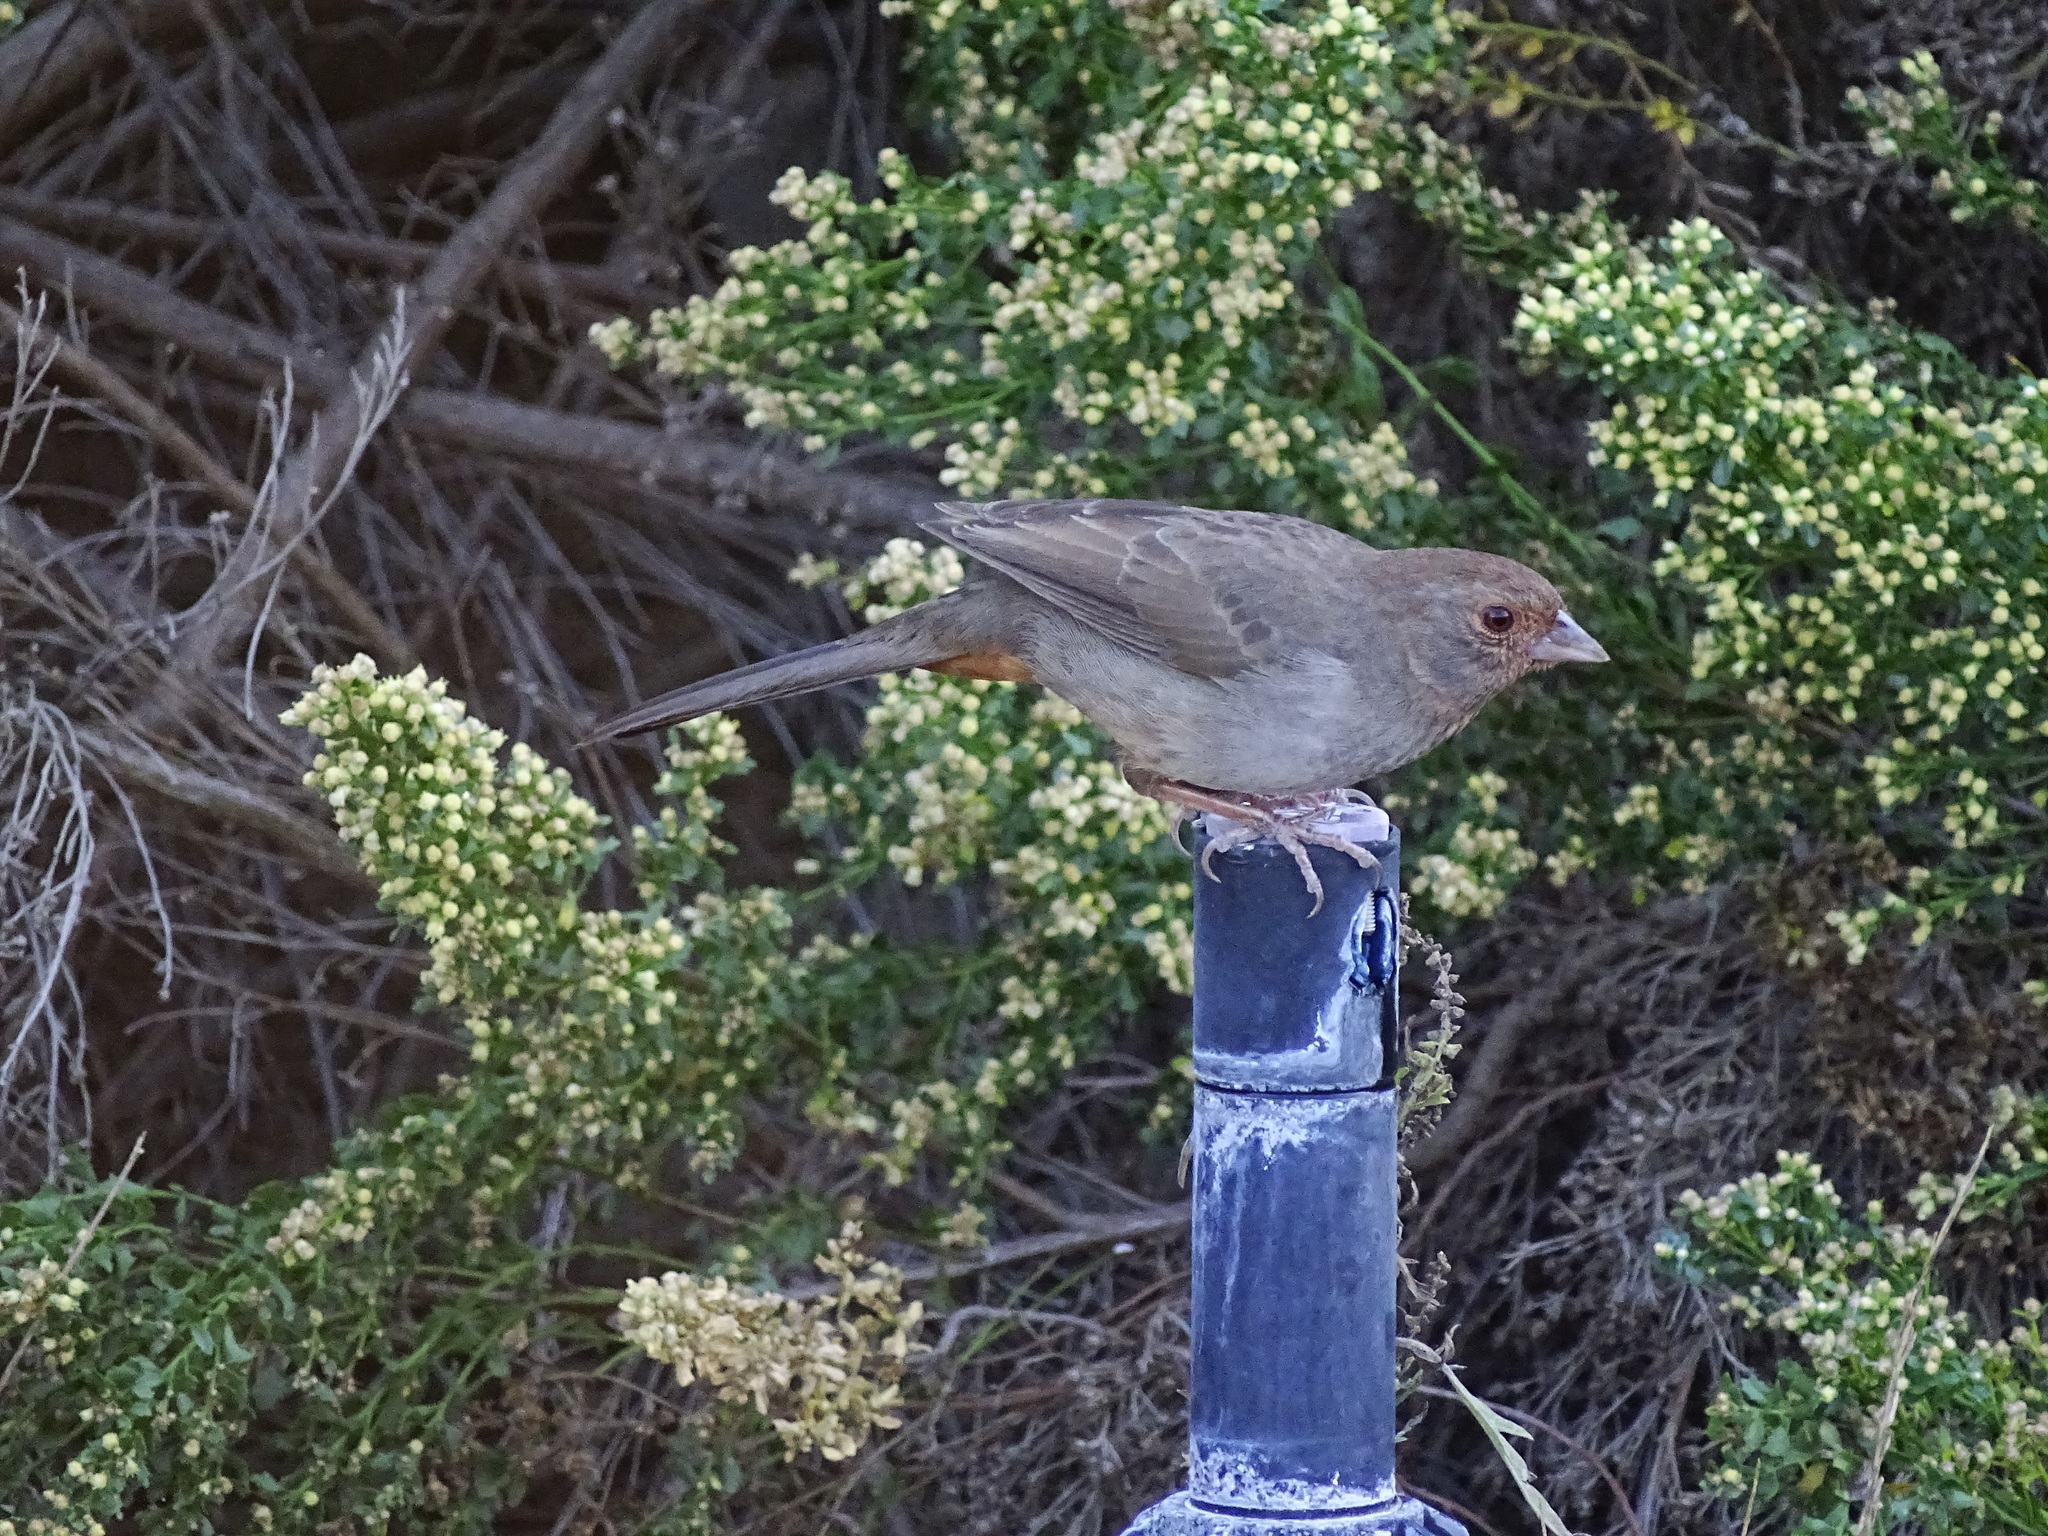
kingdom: Animalia
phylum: Chordata
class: Aves
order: Passeriformes
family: Passerellidae
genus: Melozone
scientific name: Melozone crissalis
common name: California towhee
